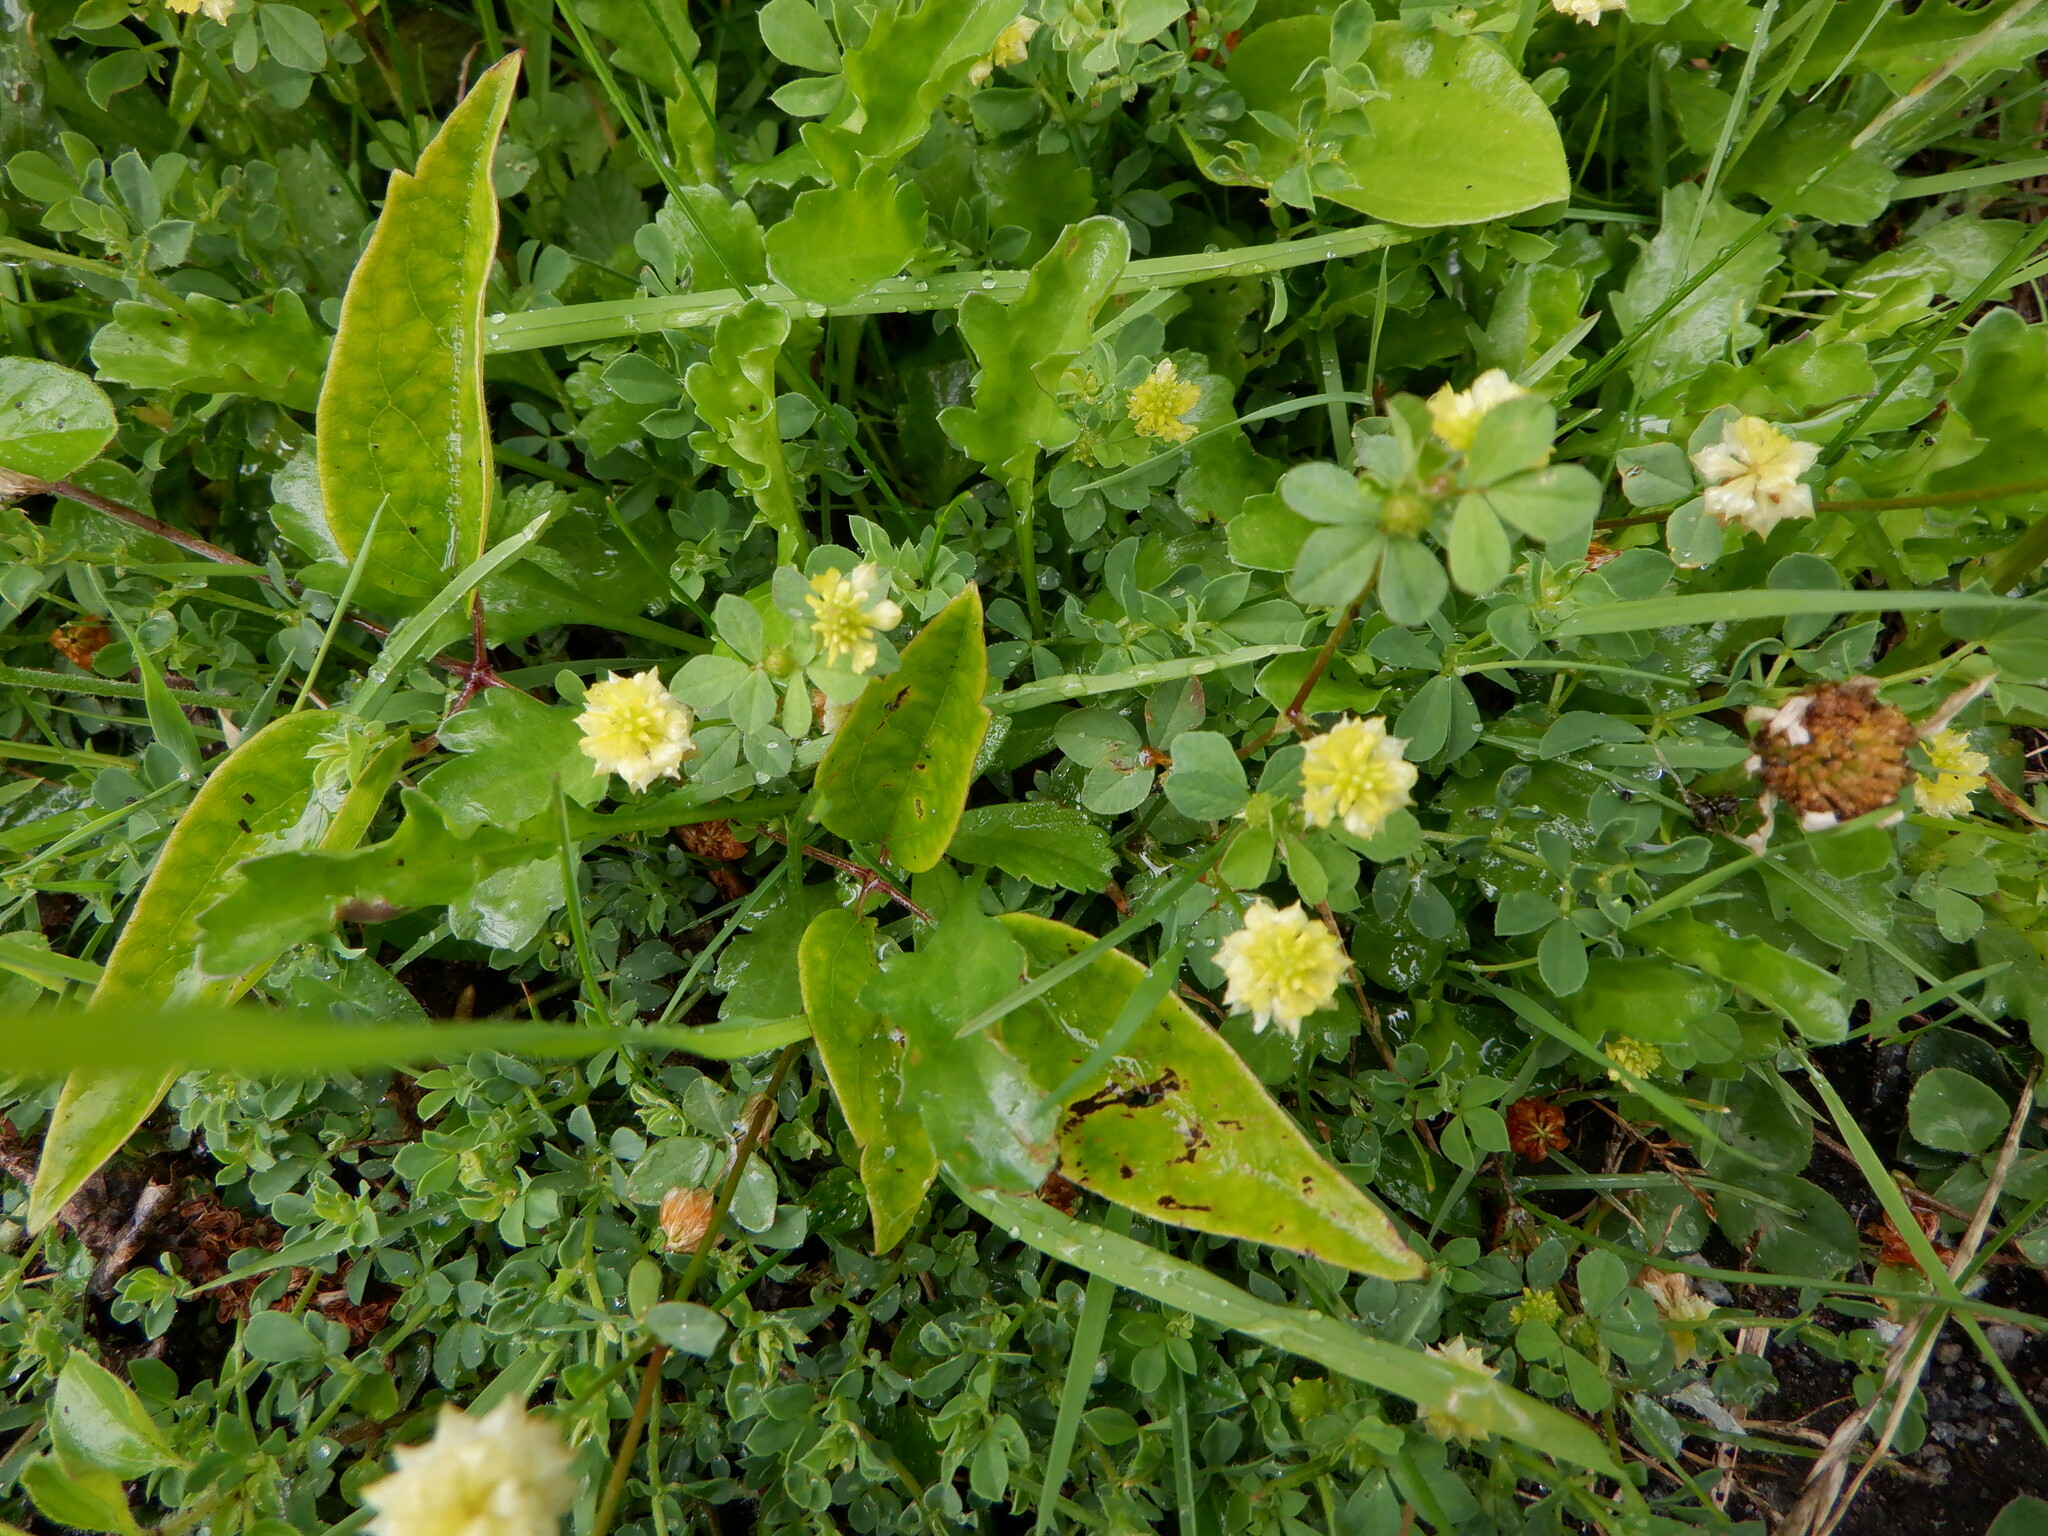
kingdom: Plantae
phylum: Tracheophyta
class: Magnoliopsida
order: Fabales
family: Fabaceae
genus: Trifolium
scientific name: Trifolium campestre
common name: Field clover
